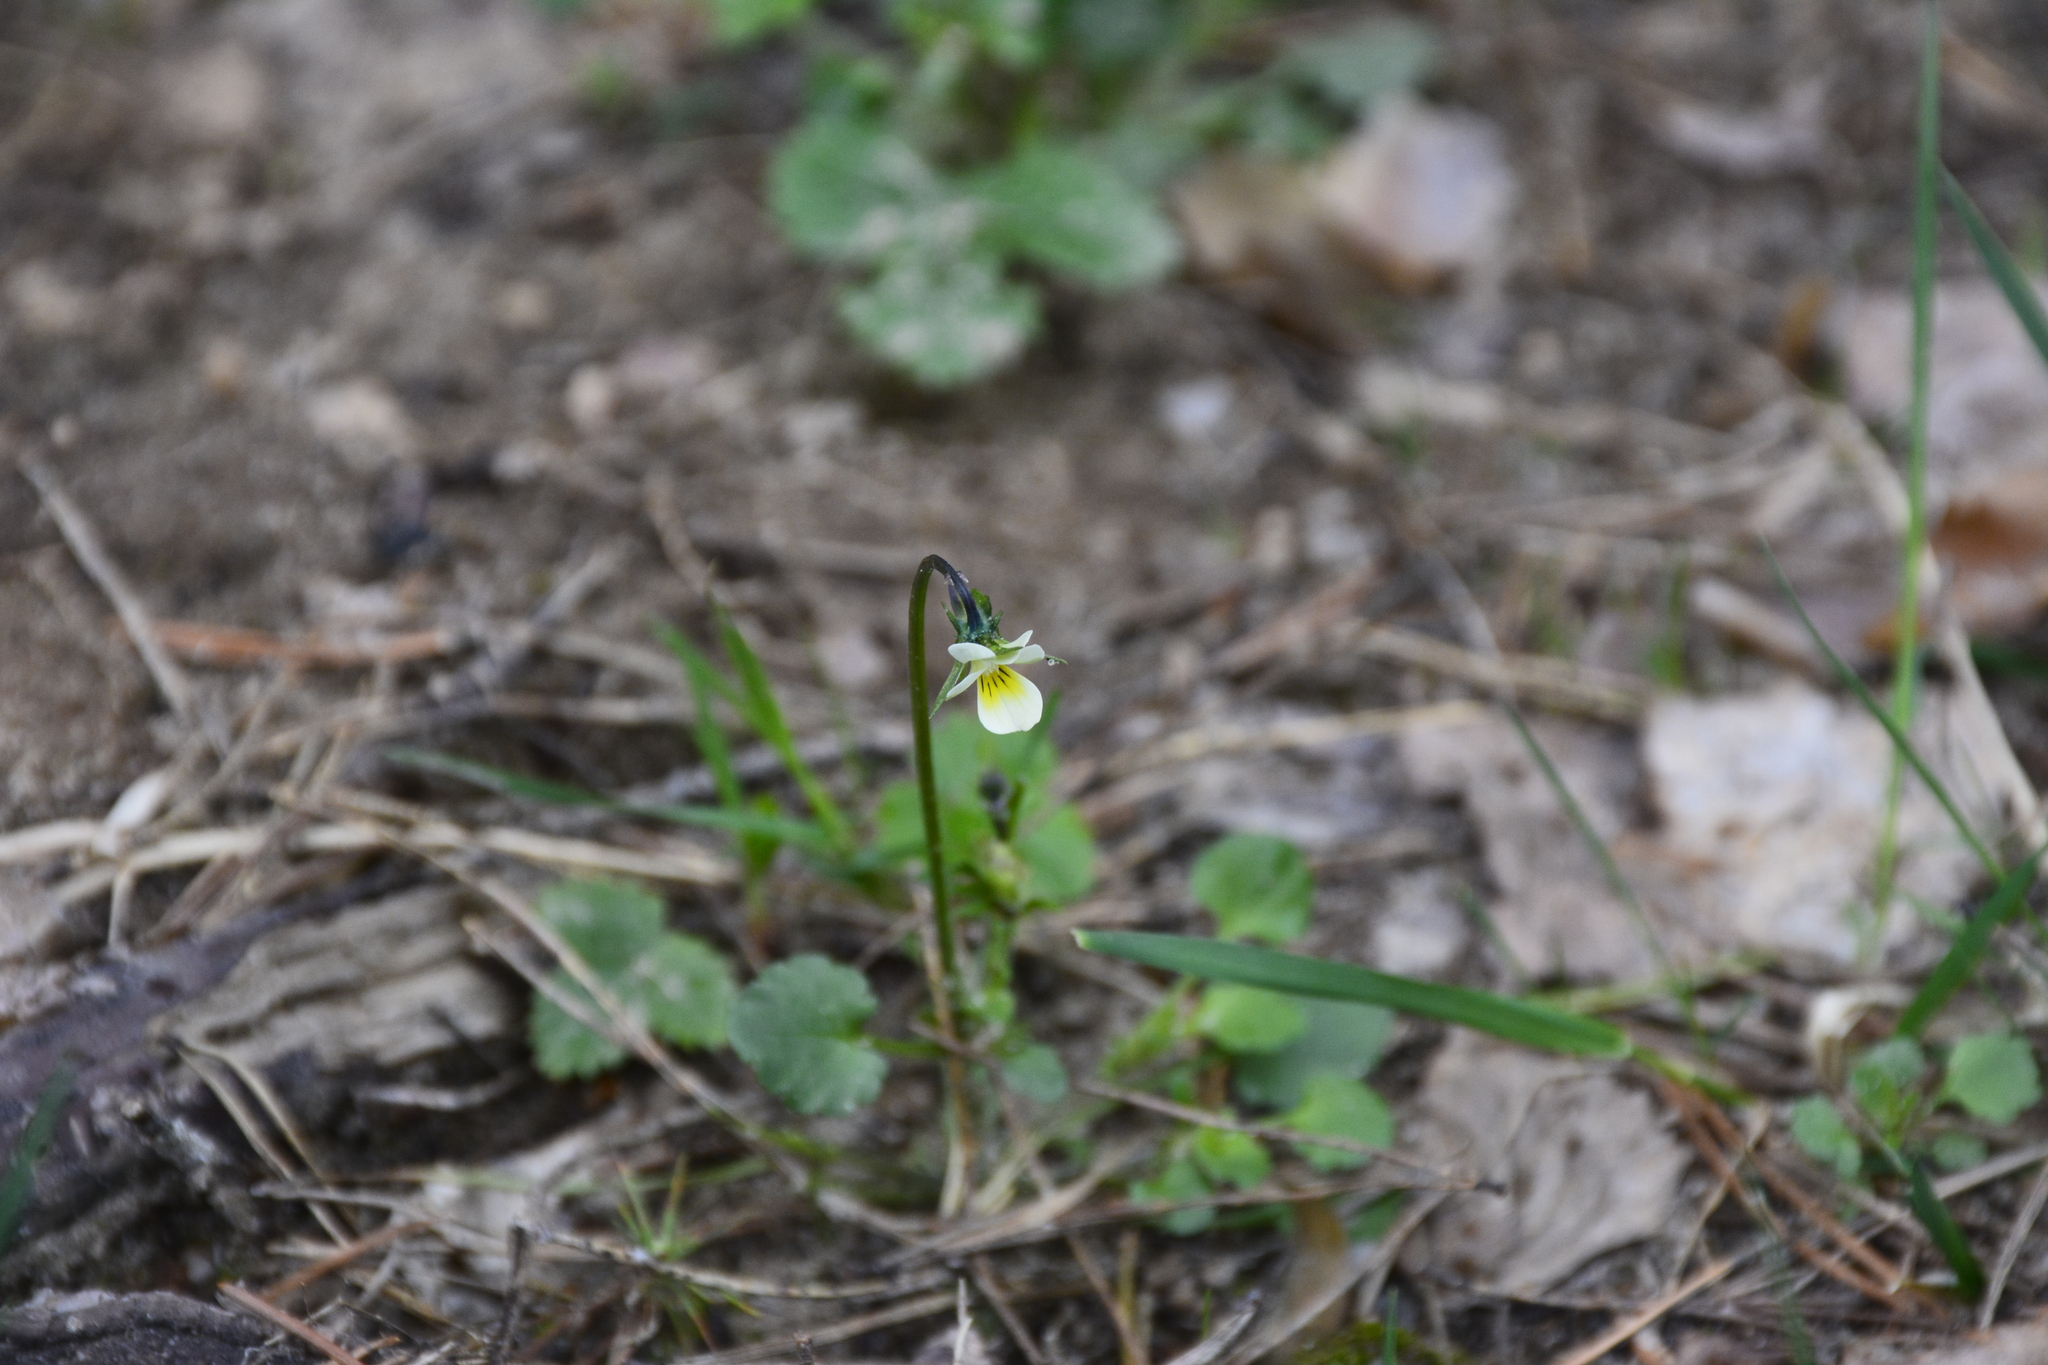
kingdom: Plantae
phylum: Tracheophyta
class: Magnoliopsida
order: Malpighiales
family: Violaceae
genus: Viola
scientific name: Viola arvensis
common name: Field pansy
